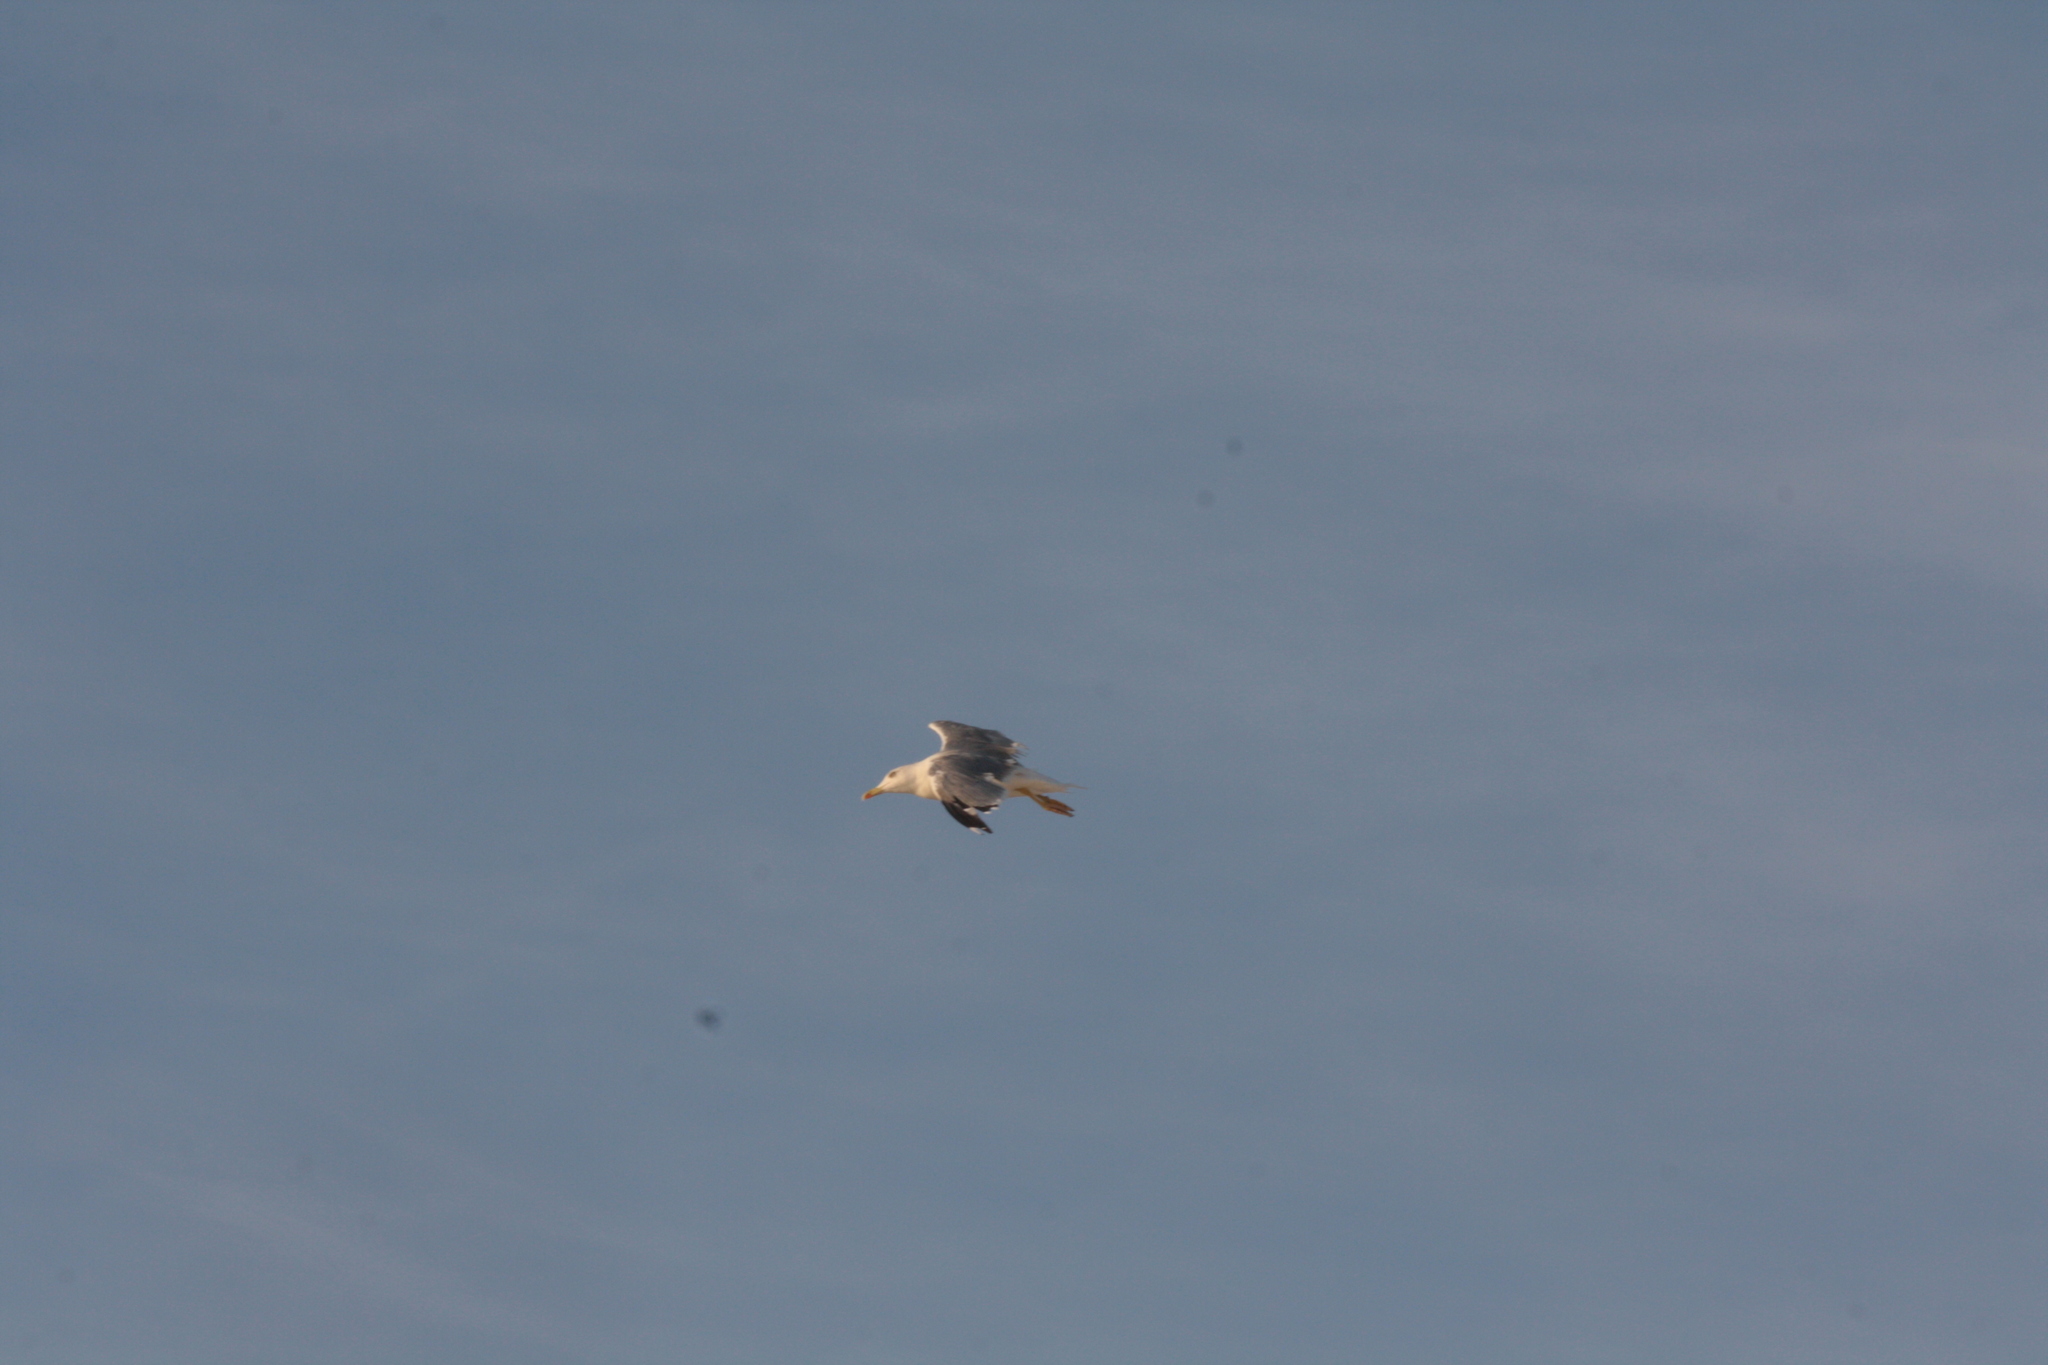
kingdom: Animalia
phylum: Chordata
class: Aves
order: Charadriiformes
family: Laridae
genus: Larus
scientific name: Larus michahellis
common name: Yellow-legged gull
